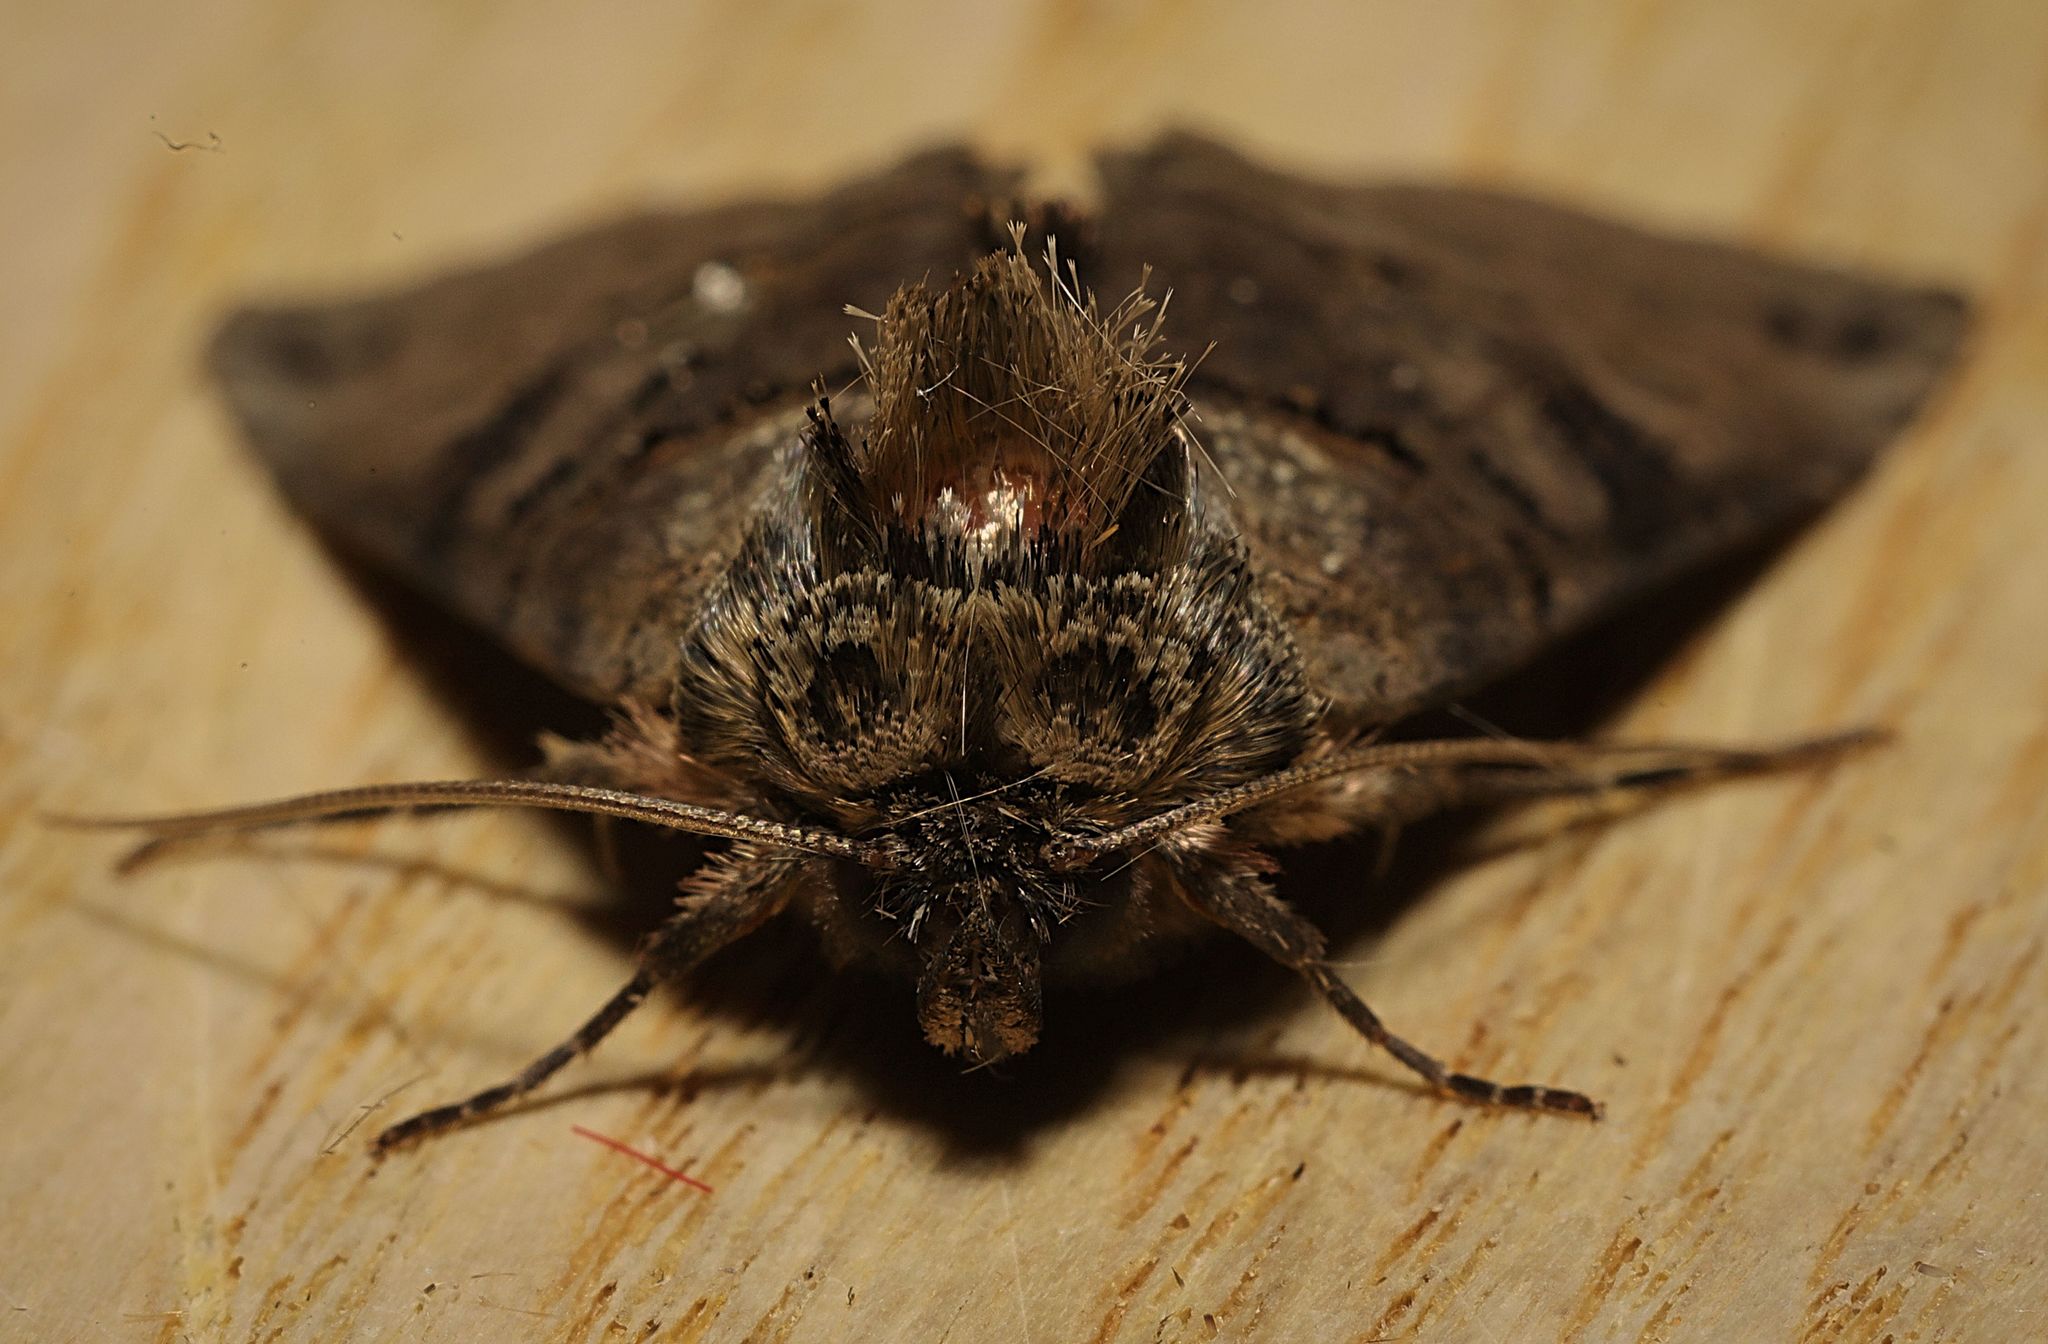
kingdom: Animalia
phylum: Arthropoda
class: Insecta
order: Lepidoptera
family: Noctuidae
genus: Abrostola
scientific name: Abrostola tripartita
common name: Spectacle
